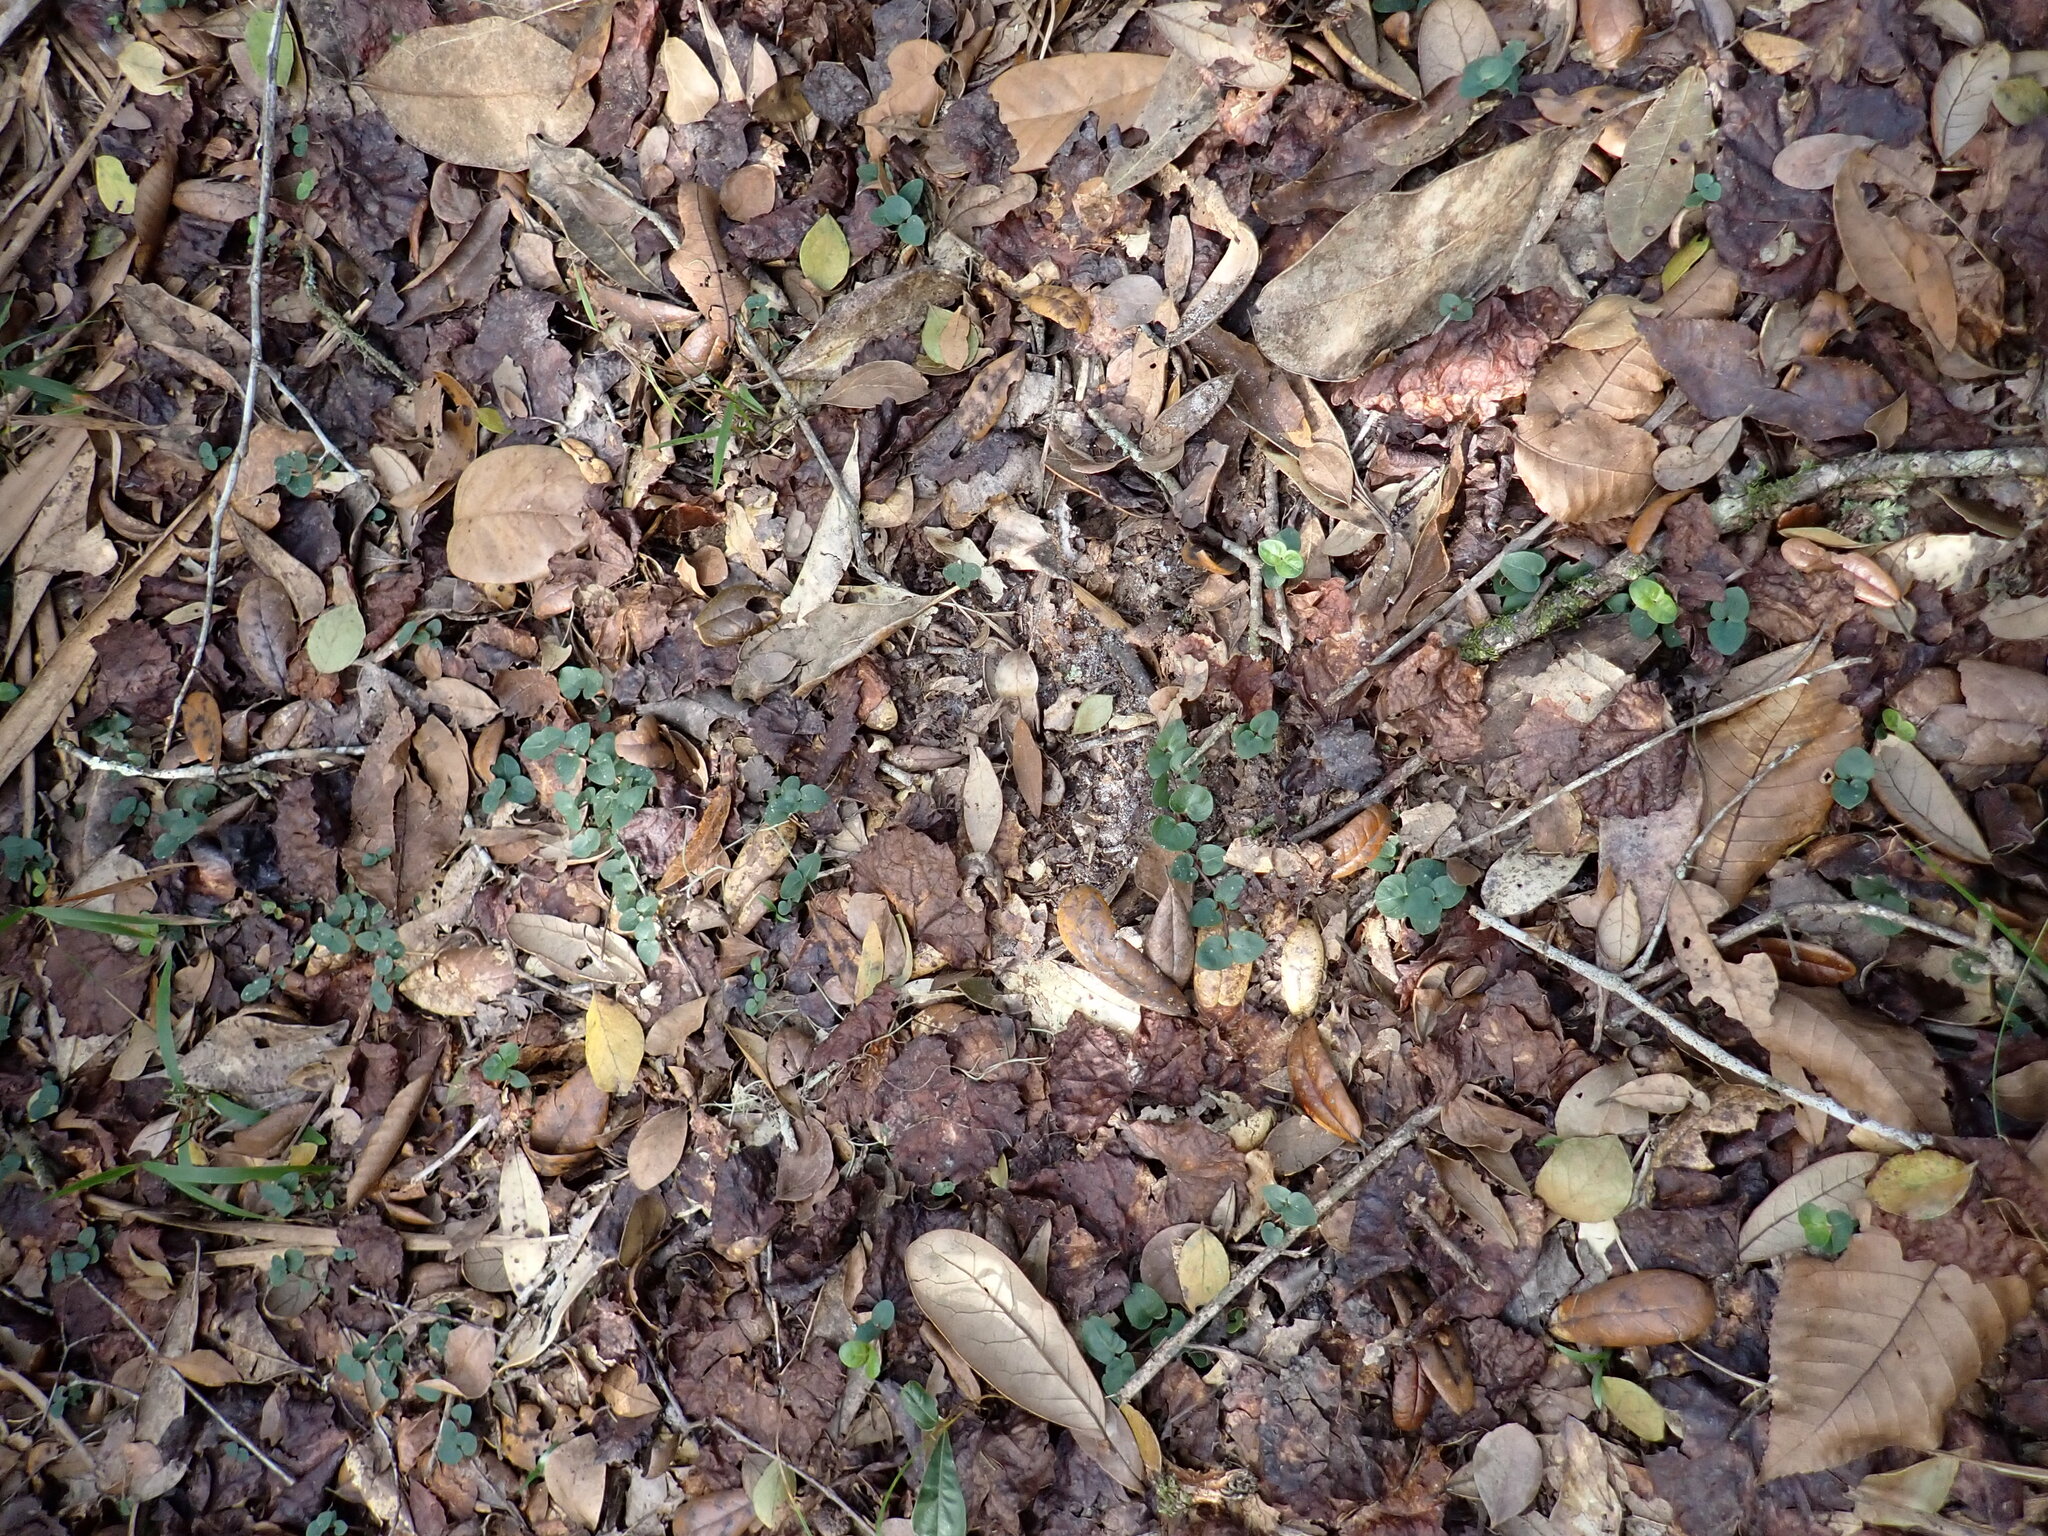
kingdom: Plantae
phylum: Tracheophyta
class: Magnoliopsida
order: Gentianales
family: Rubiaceae
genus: Mitchella
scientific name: Mitchella repens
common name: Partridge-berry
